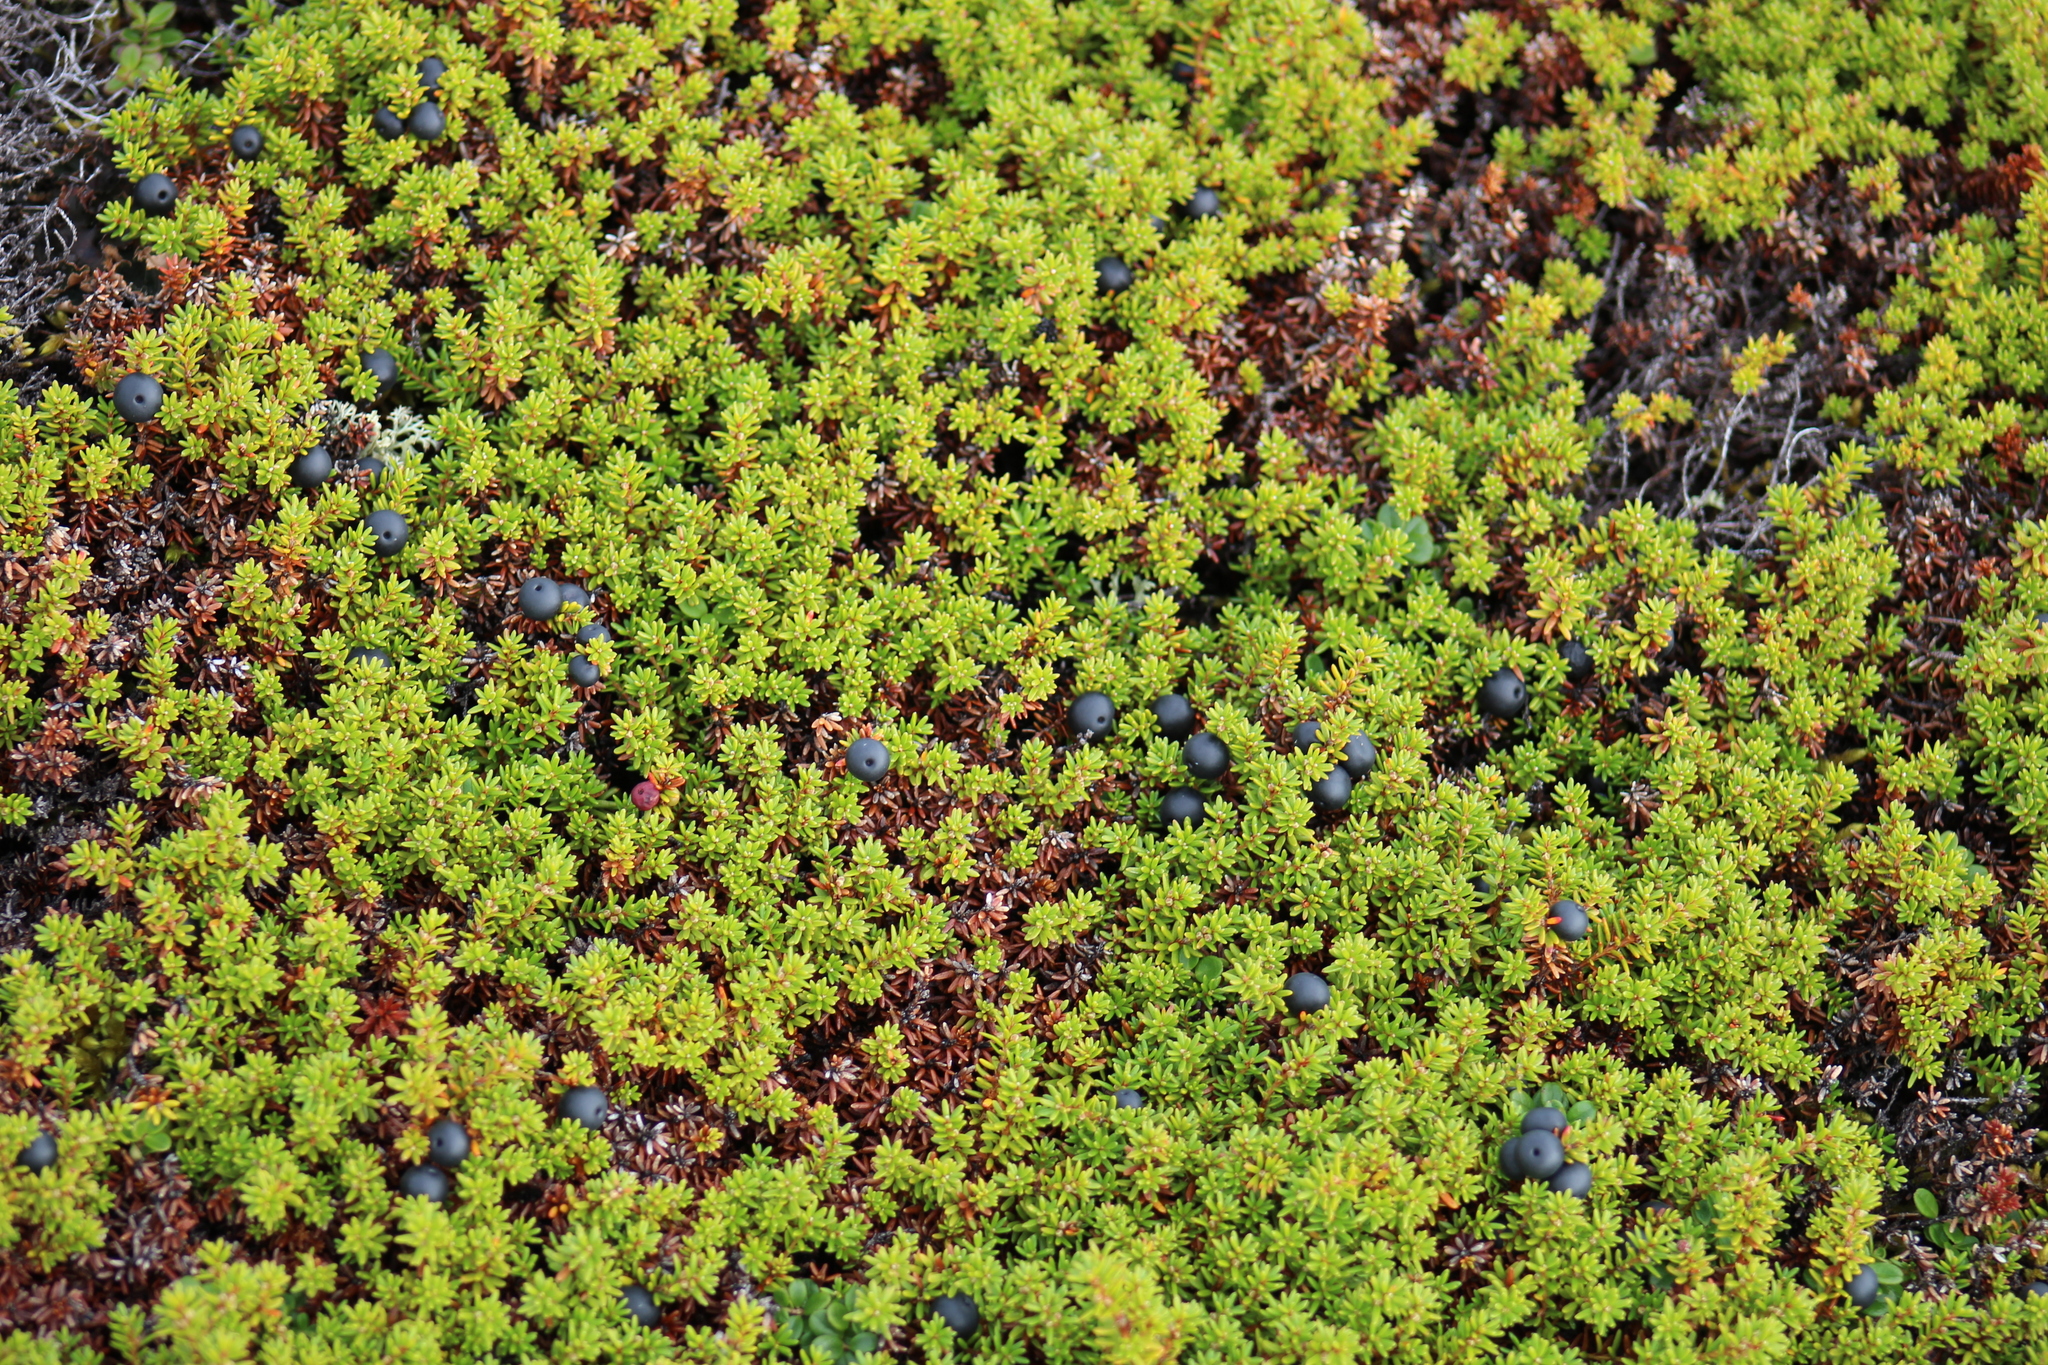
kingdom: Plantae
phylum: Tracheophyta
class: Magnoliopsida
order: Ericales
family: Ericaceae
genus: Empetrum
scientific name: Empetrum nigrum
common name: Black crowberry
